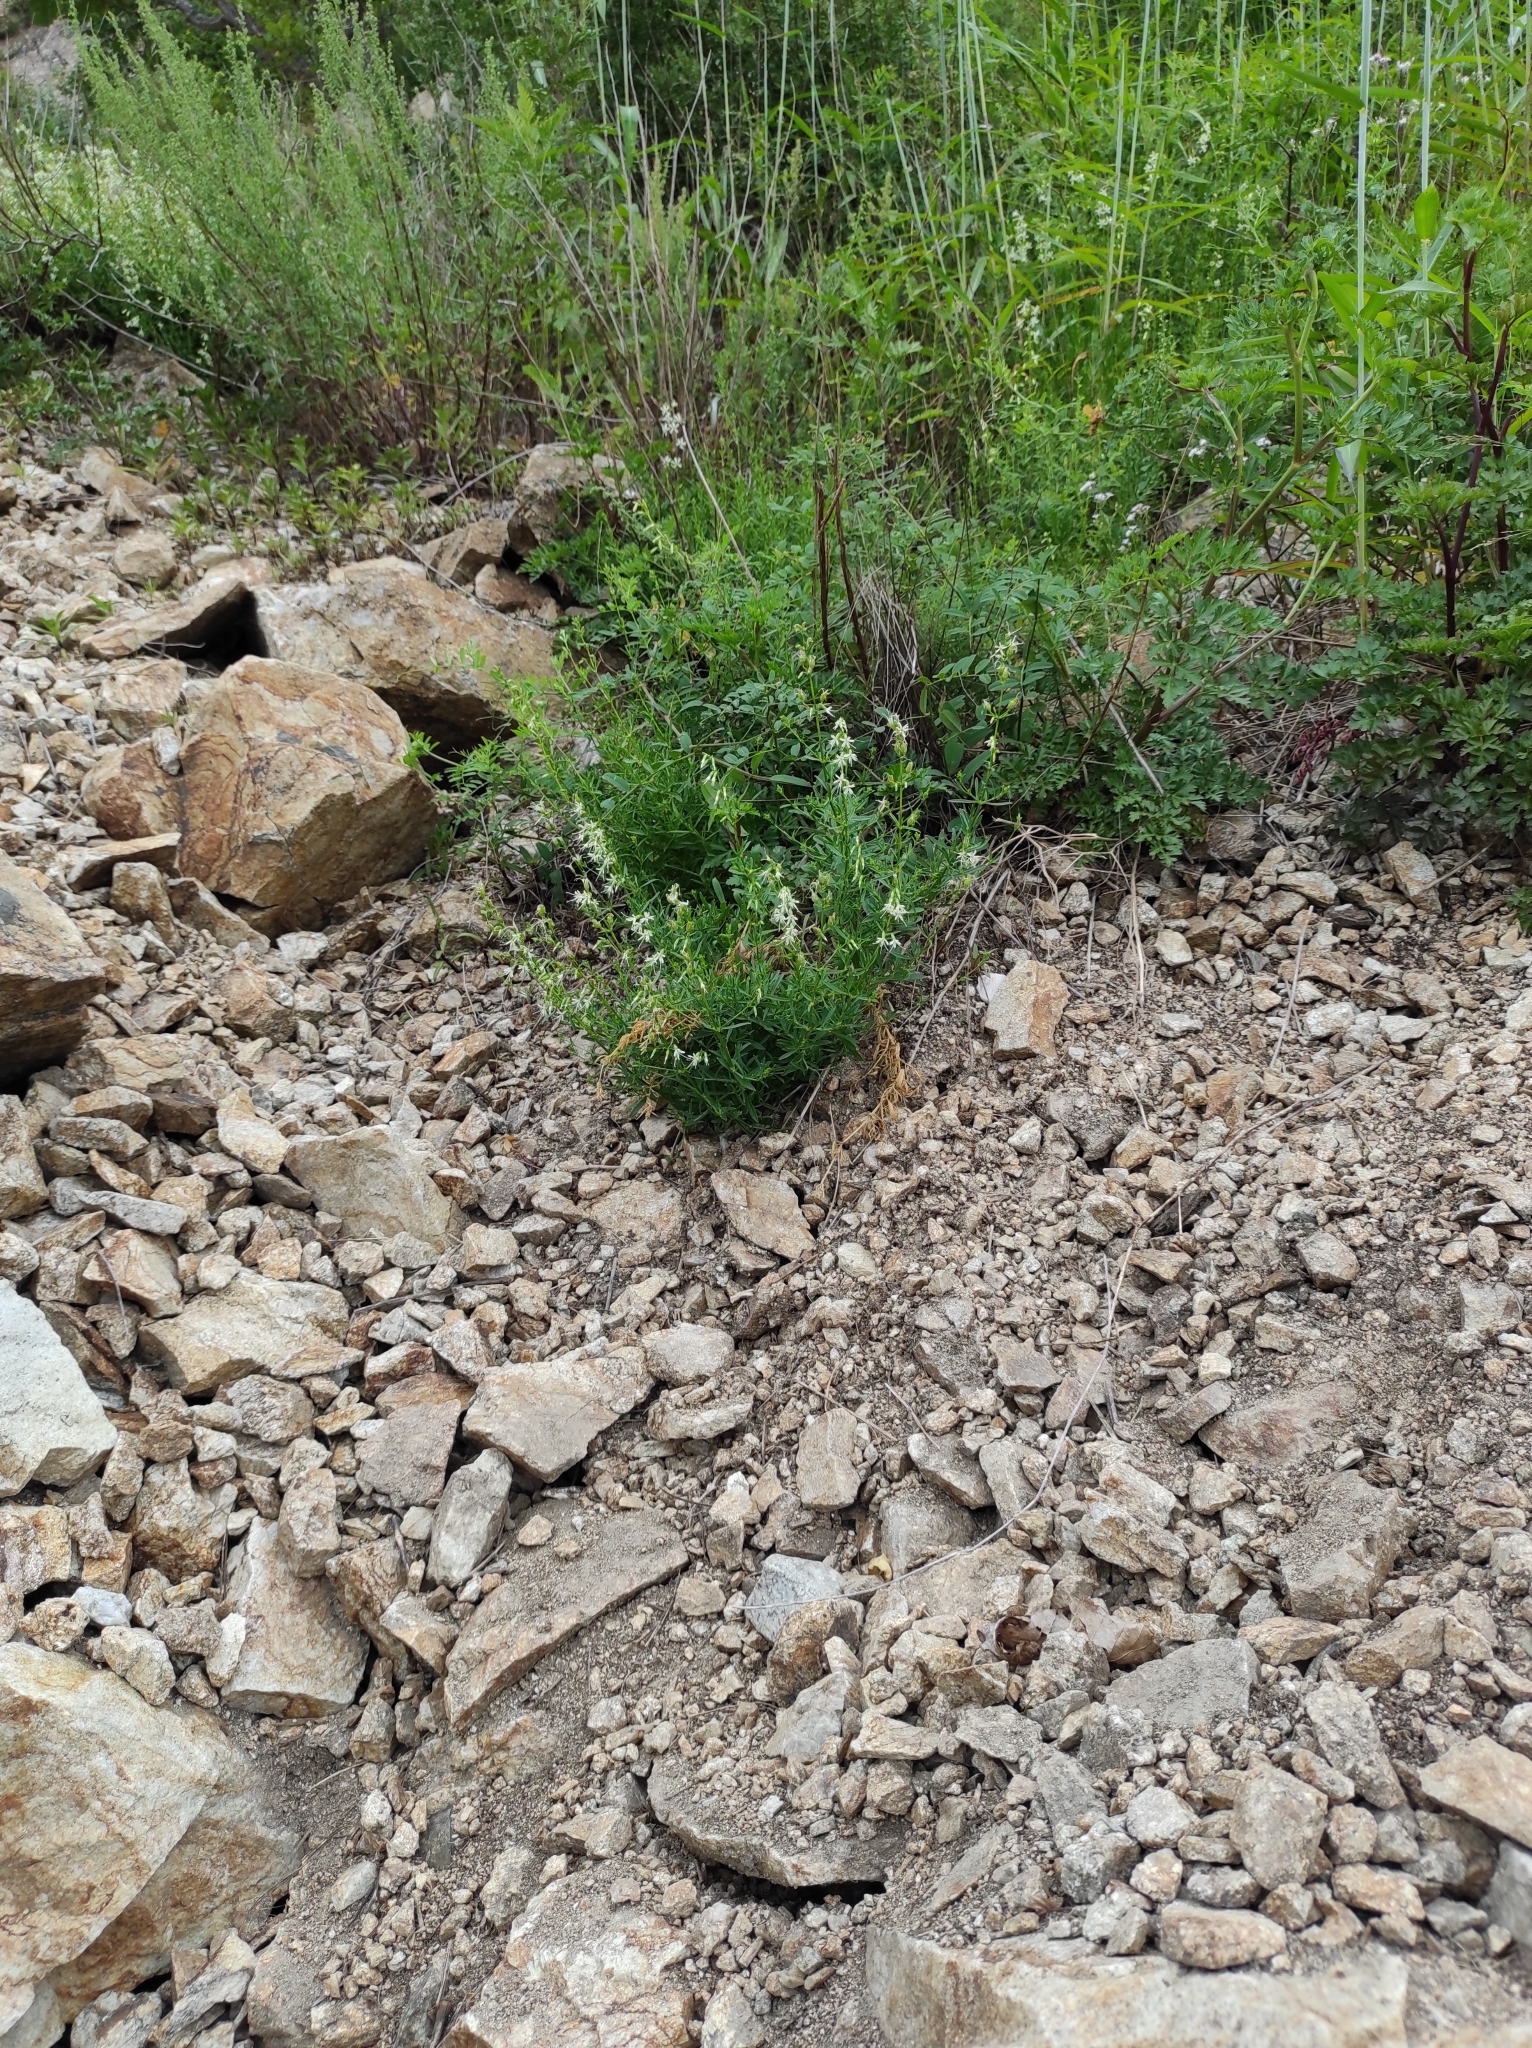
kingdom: Plantae
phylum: Tracheophyta
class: Magnoliopsida
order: Caryophyllales
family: Caryophyllaceae
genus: Silene
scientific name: Silene foliosa
